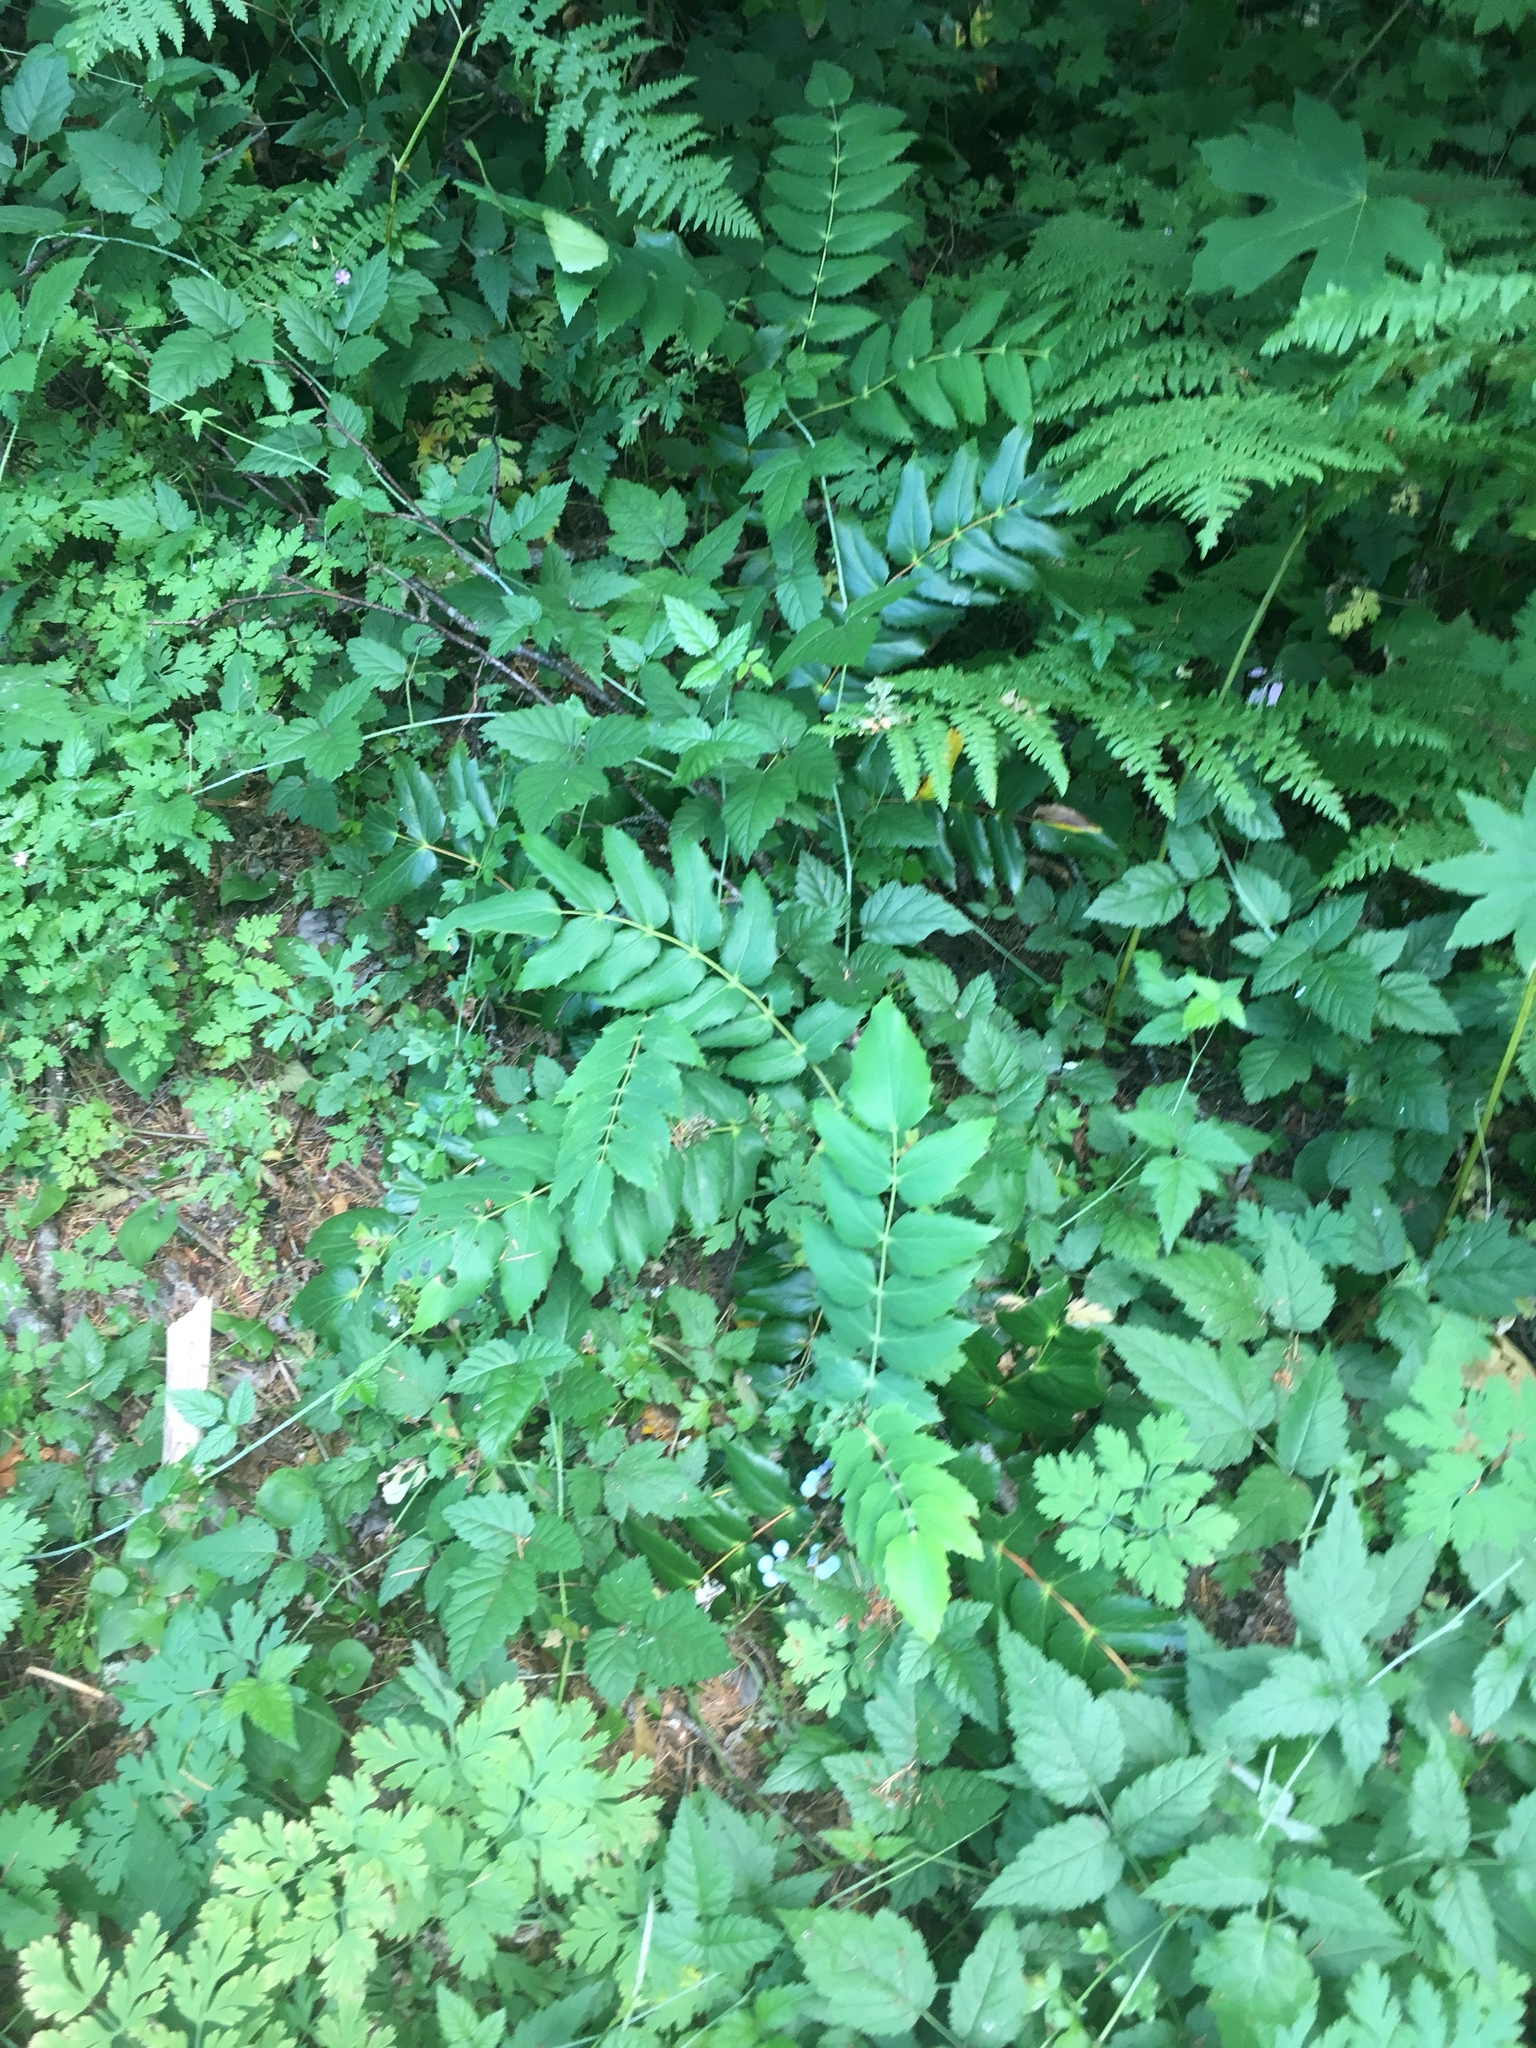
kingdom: Plantae
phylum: Tracheophyta
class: Magnoliopsida
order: Ranunculales
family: Berberidaceae
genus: Mahonia
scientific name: Mahonia nervosa
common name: Cascade oregon-grape
